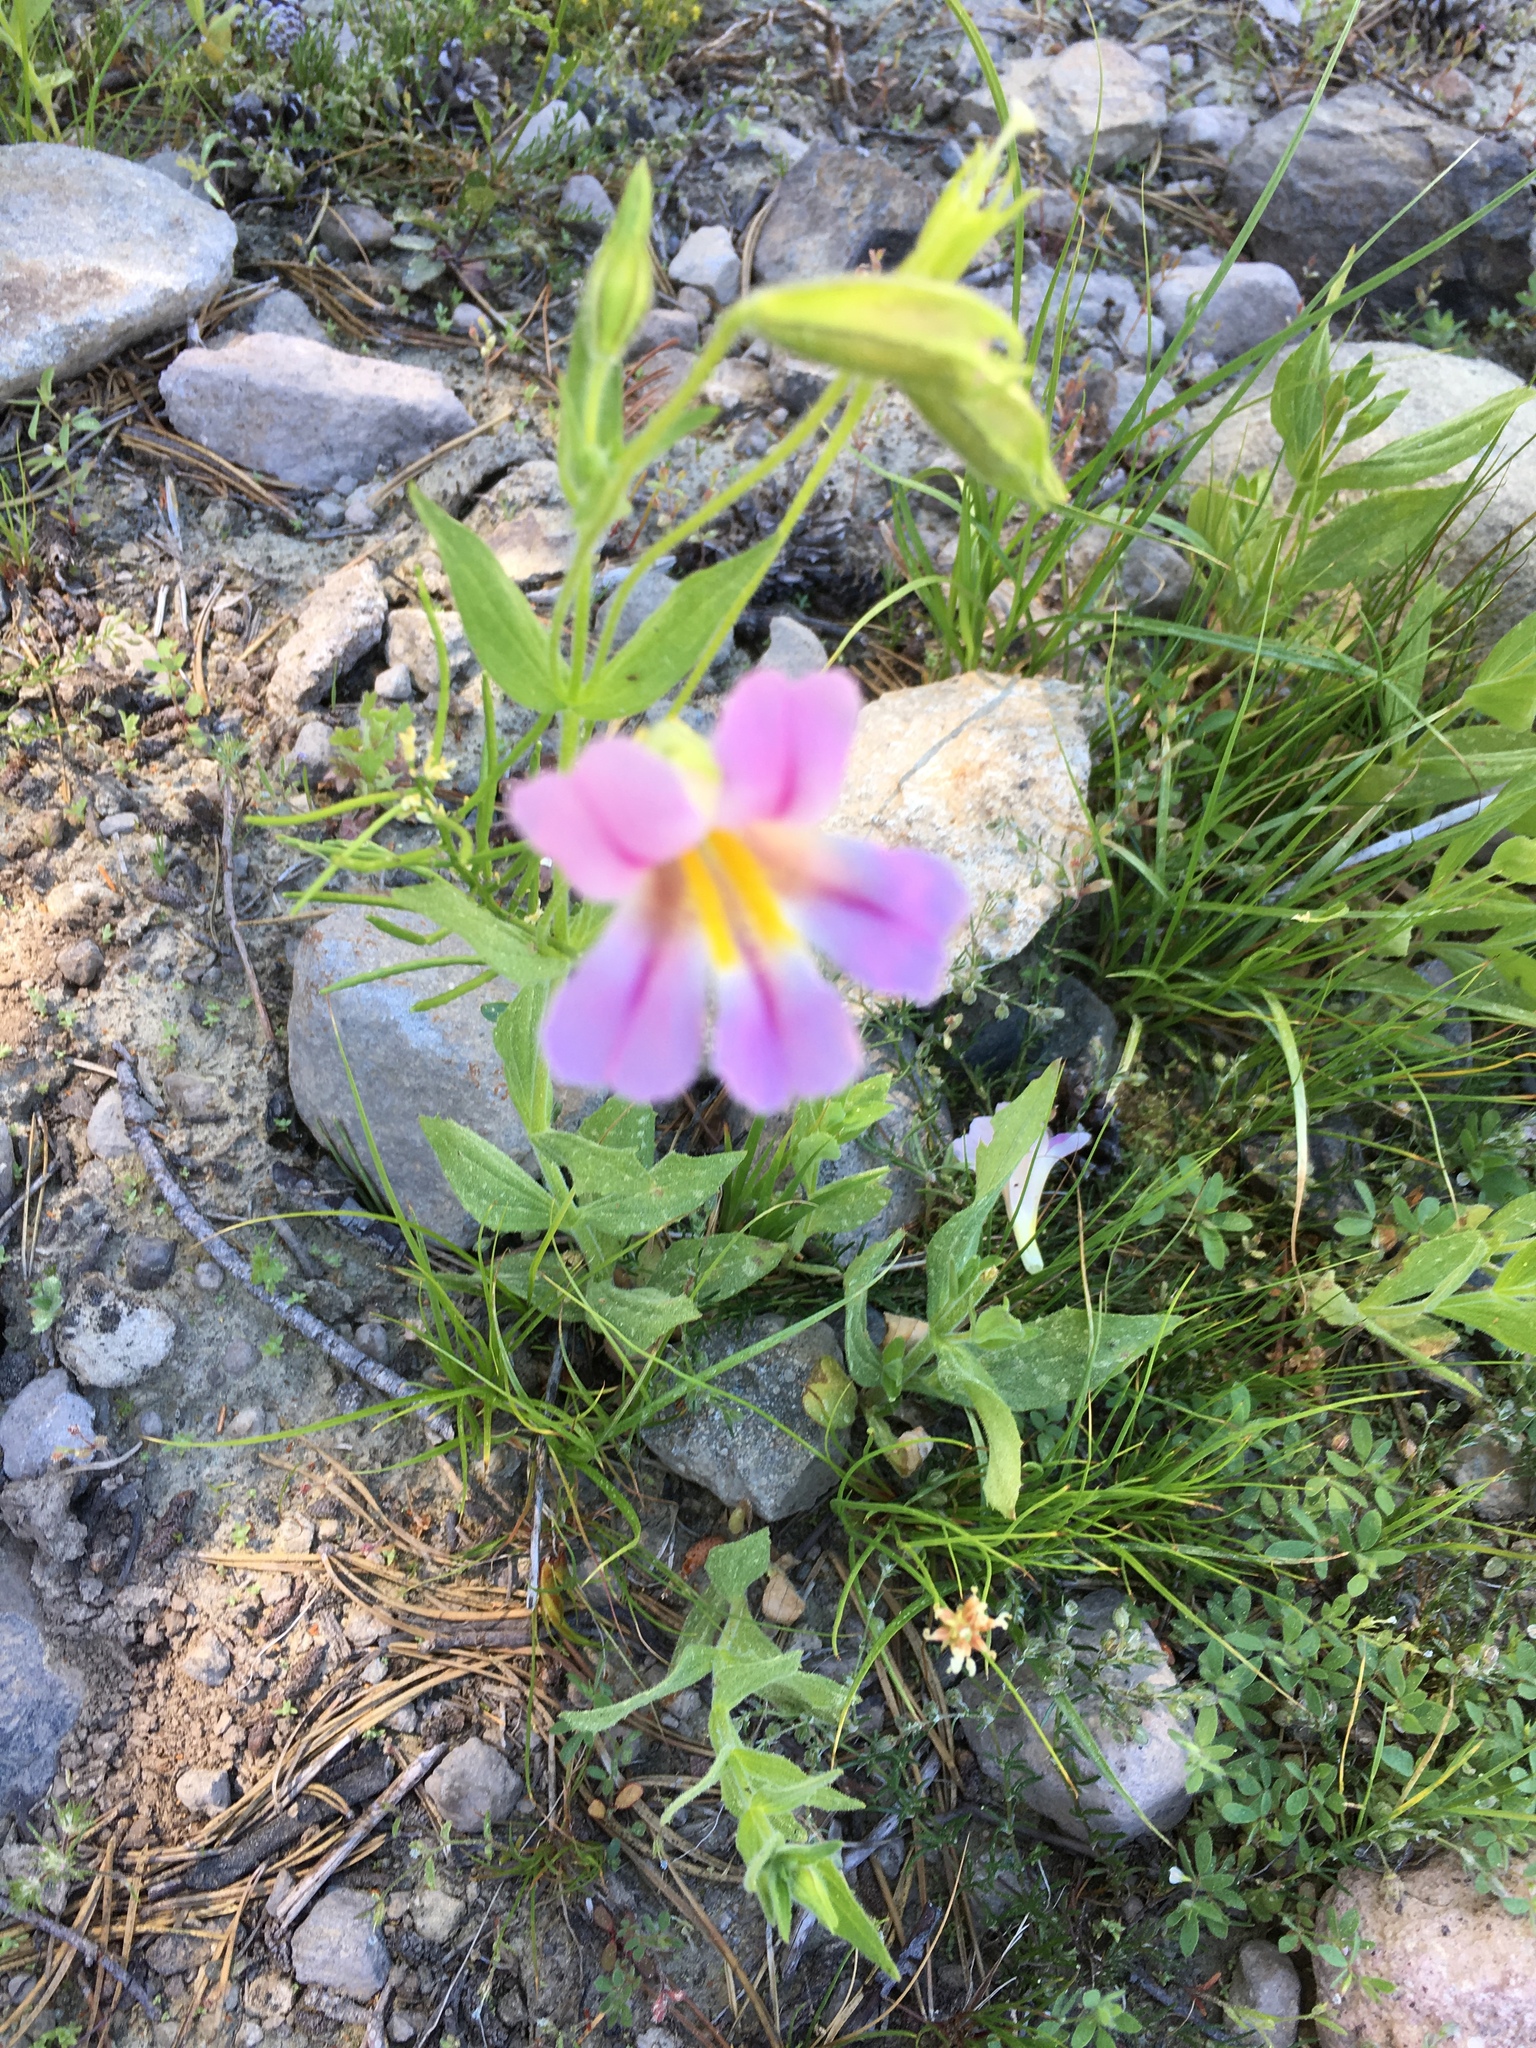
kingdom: Plantae
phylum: Tracheophyta
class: Magnoliopsida
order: Lamiales
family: Phrymaceae
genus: Erythranthe
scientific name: Erythranthe erubescens
